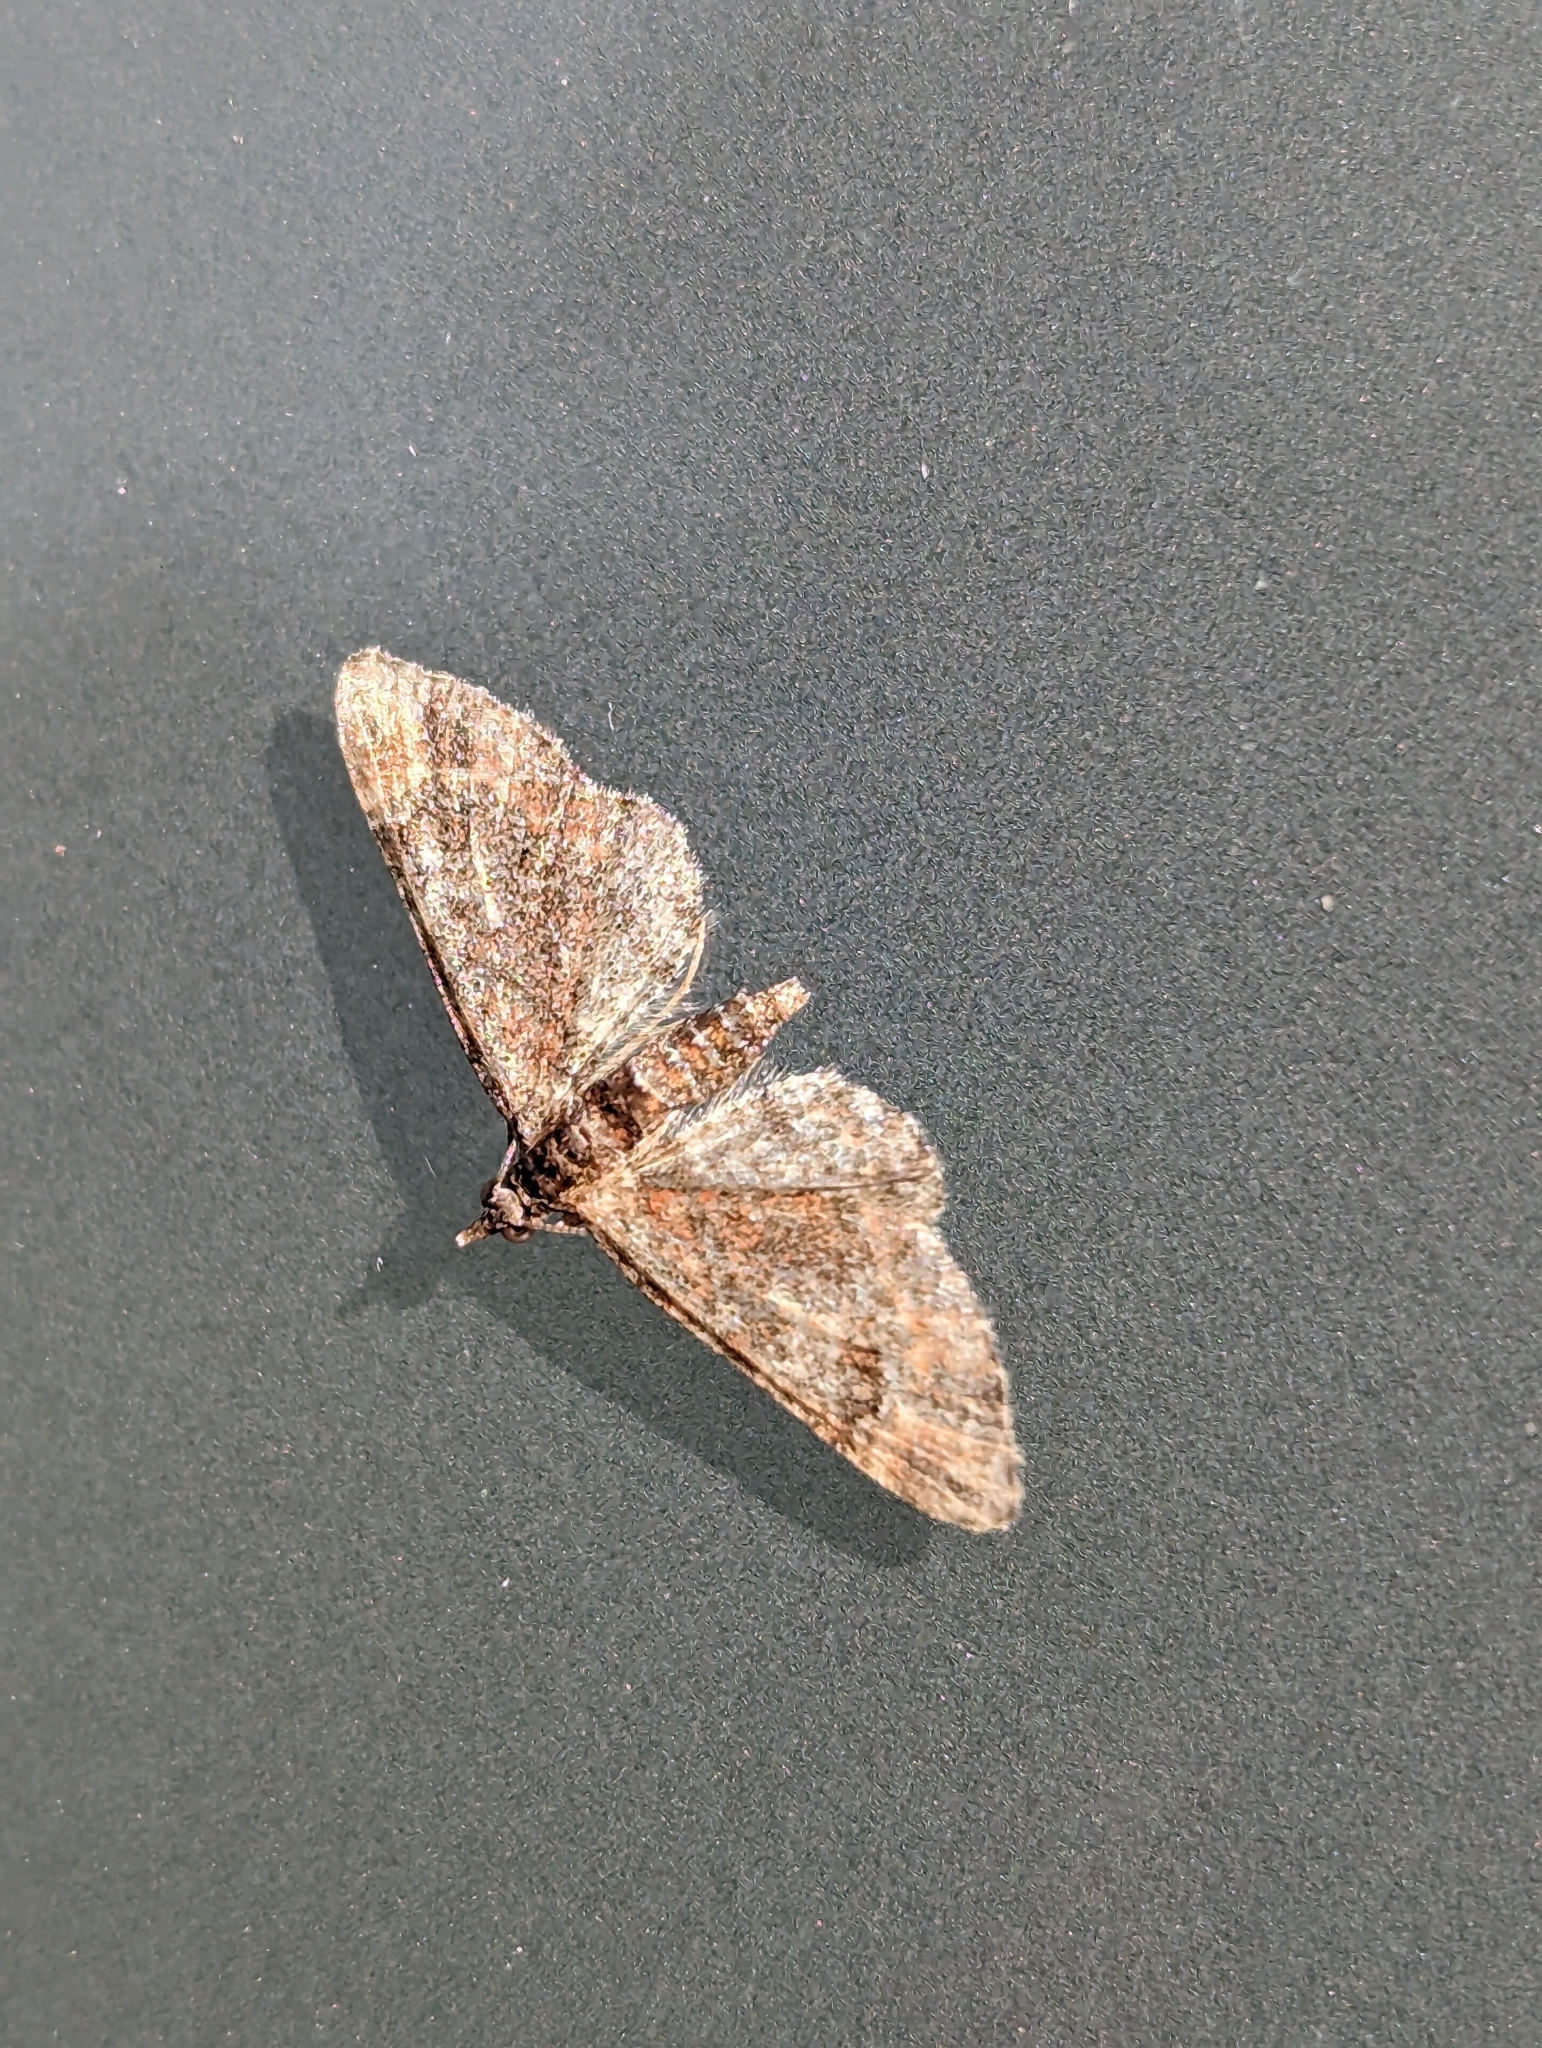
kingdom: Animalia
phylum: Arthropoda
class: Insecta
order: Lepidoptera
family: Geometridae
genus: Gymnoscelis
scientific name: Gymnoscelis rufifasciata
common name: Double-striped pug
